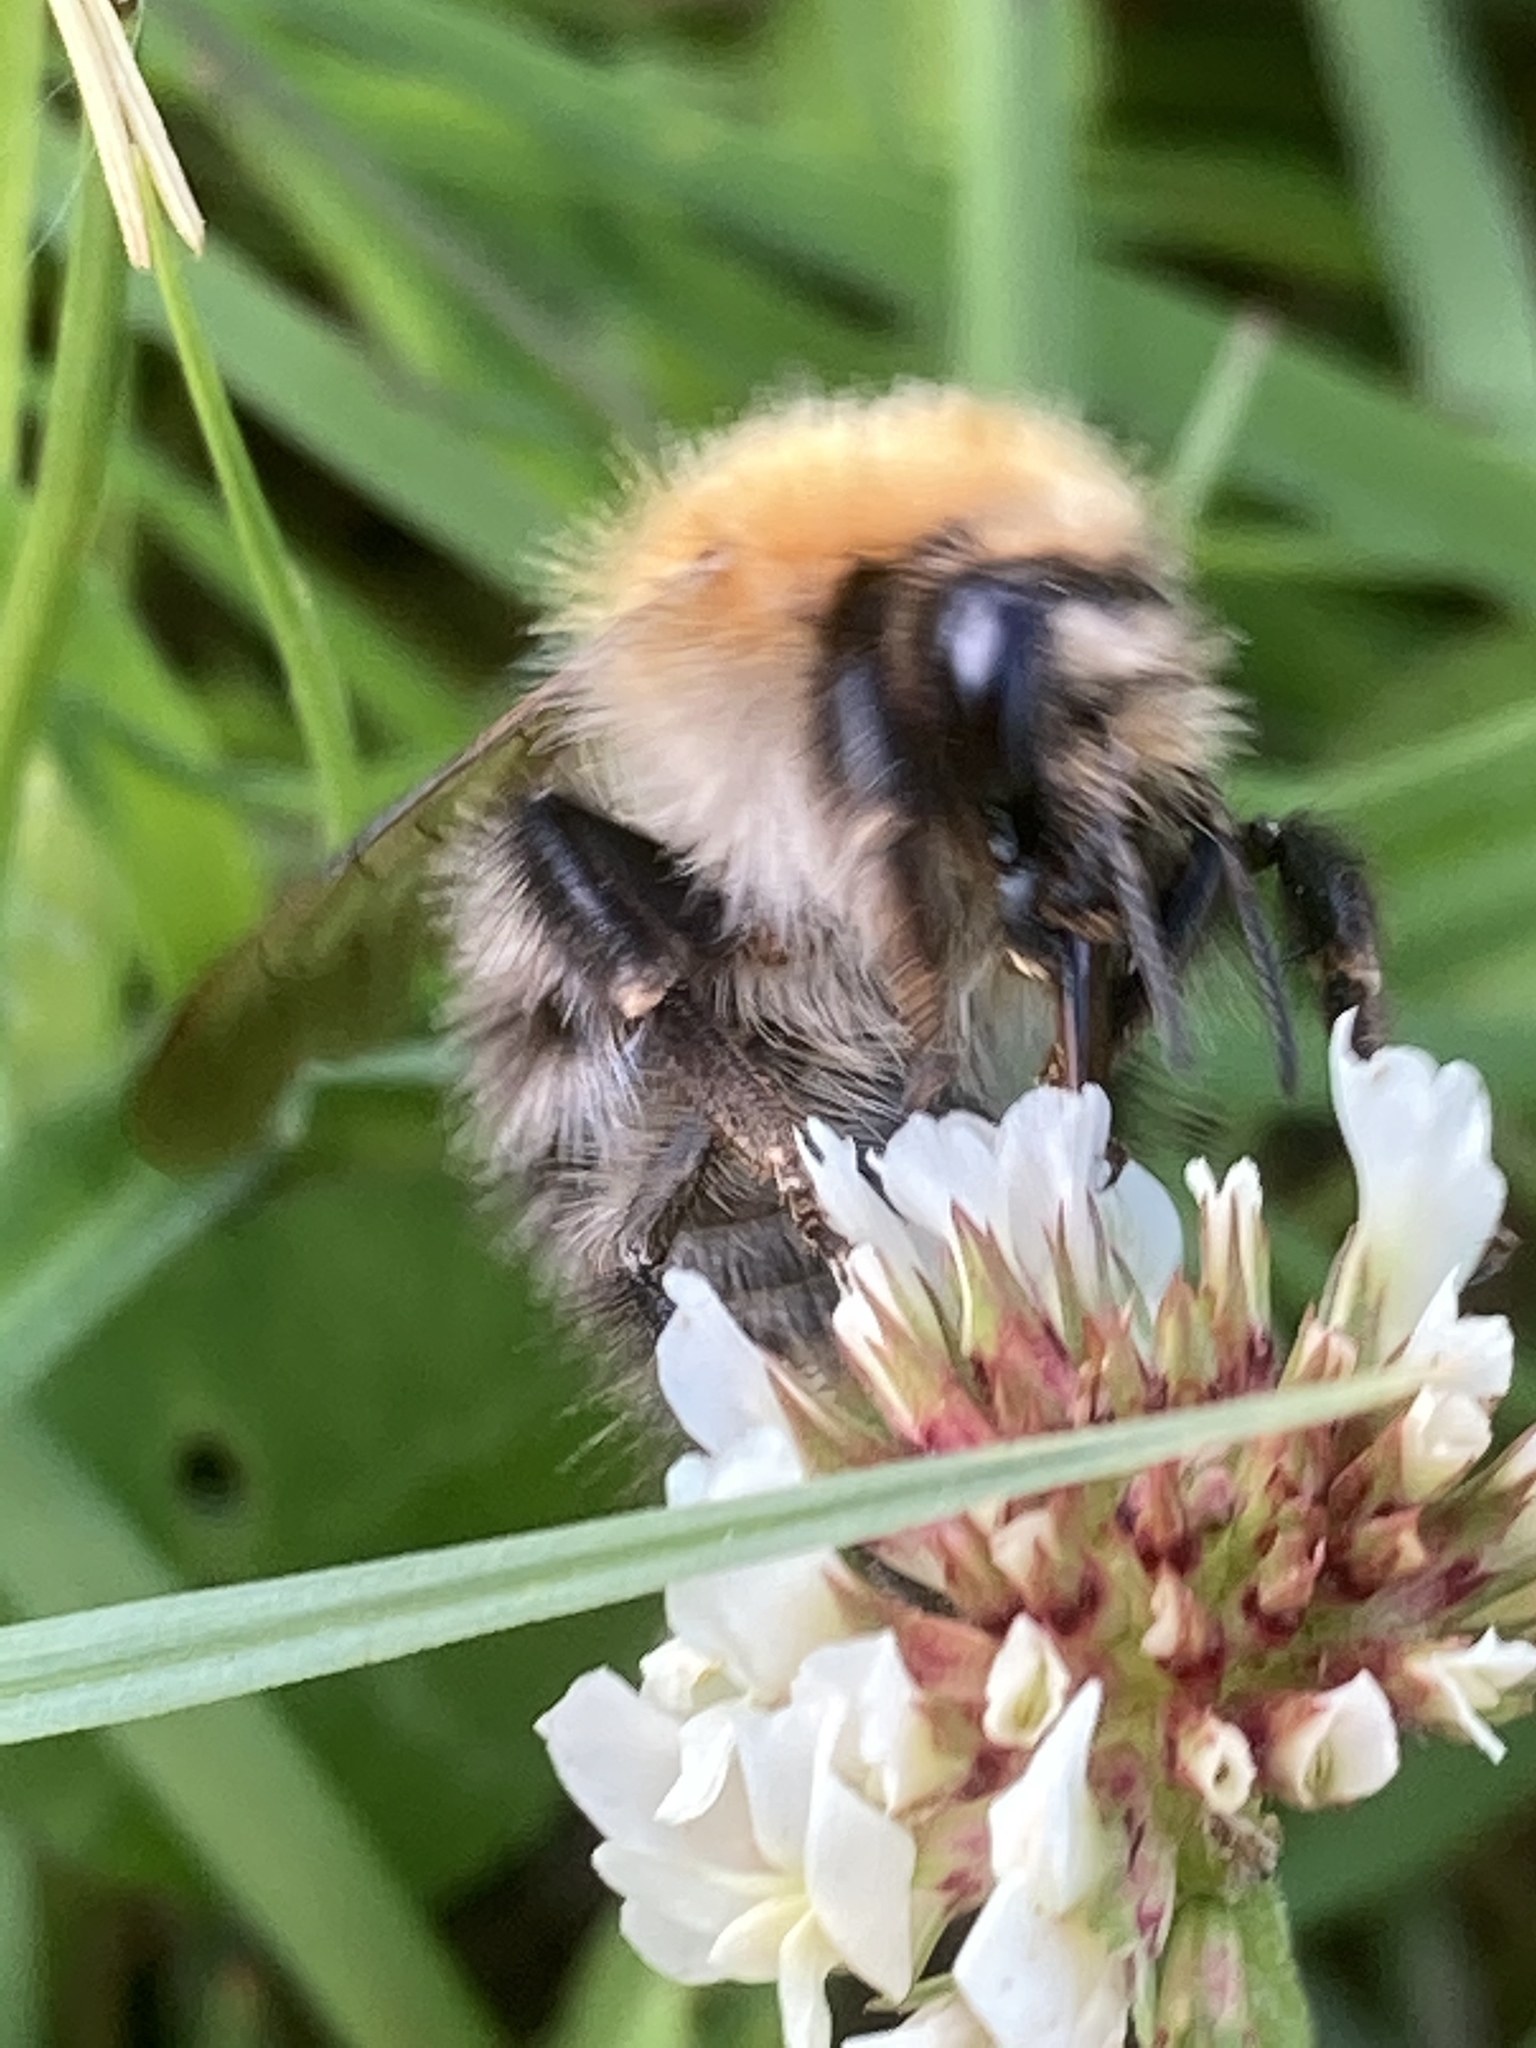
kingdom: Plantae
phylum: Tracheophyta
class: Magnoliopsida
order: Fabales
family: Fabaceae
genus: Trifolium
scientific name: Trifolium repens
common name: White clover
